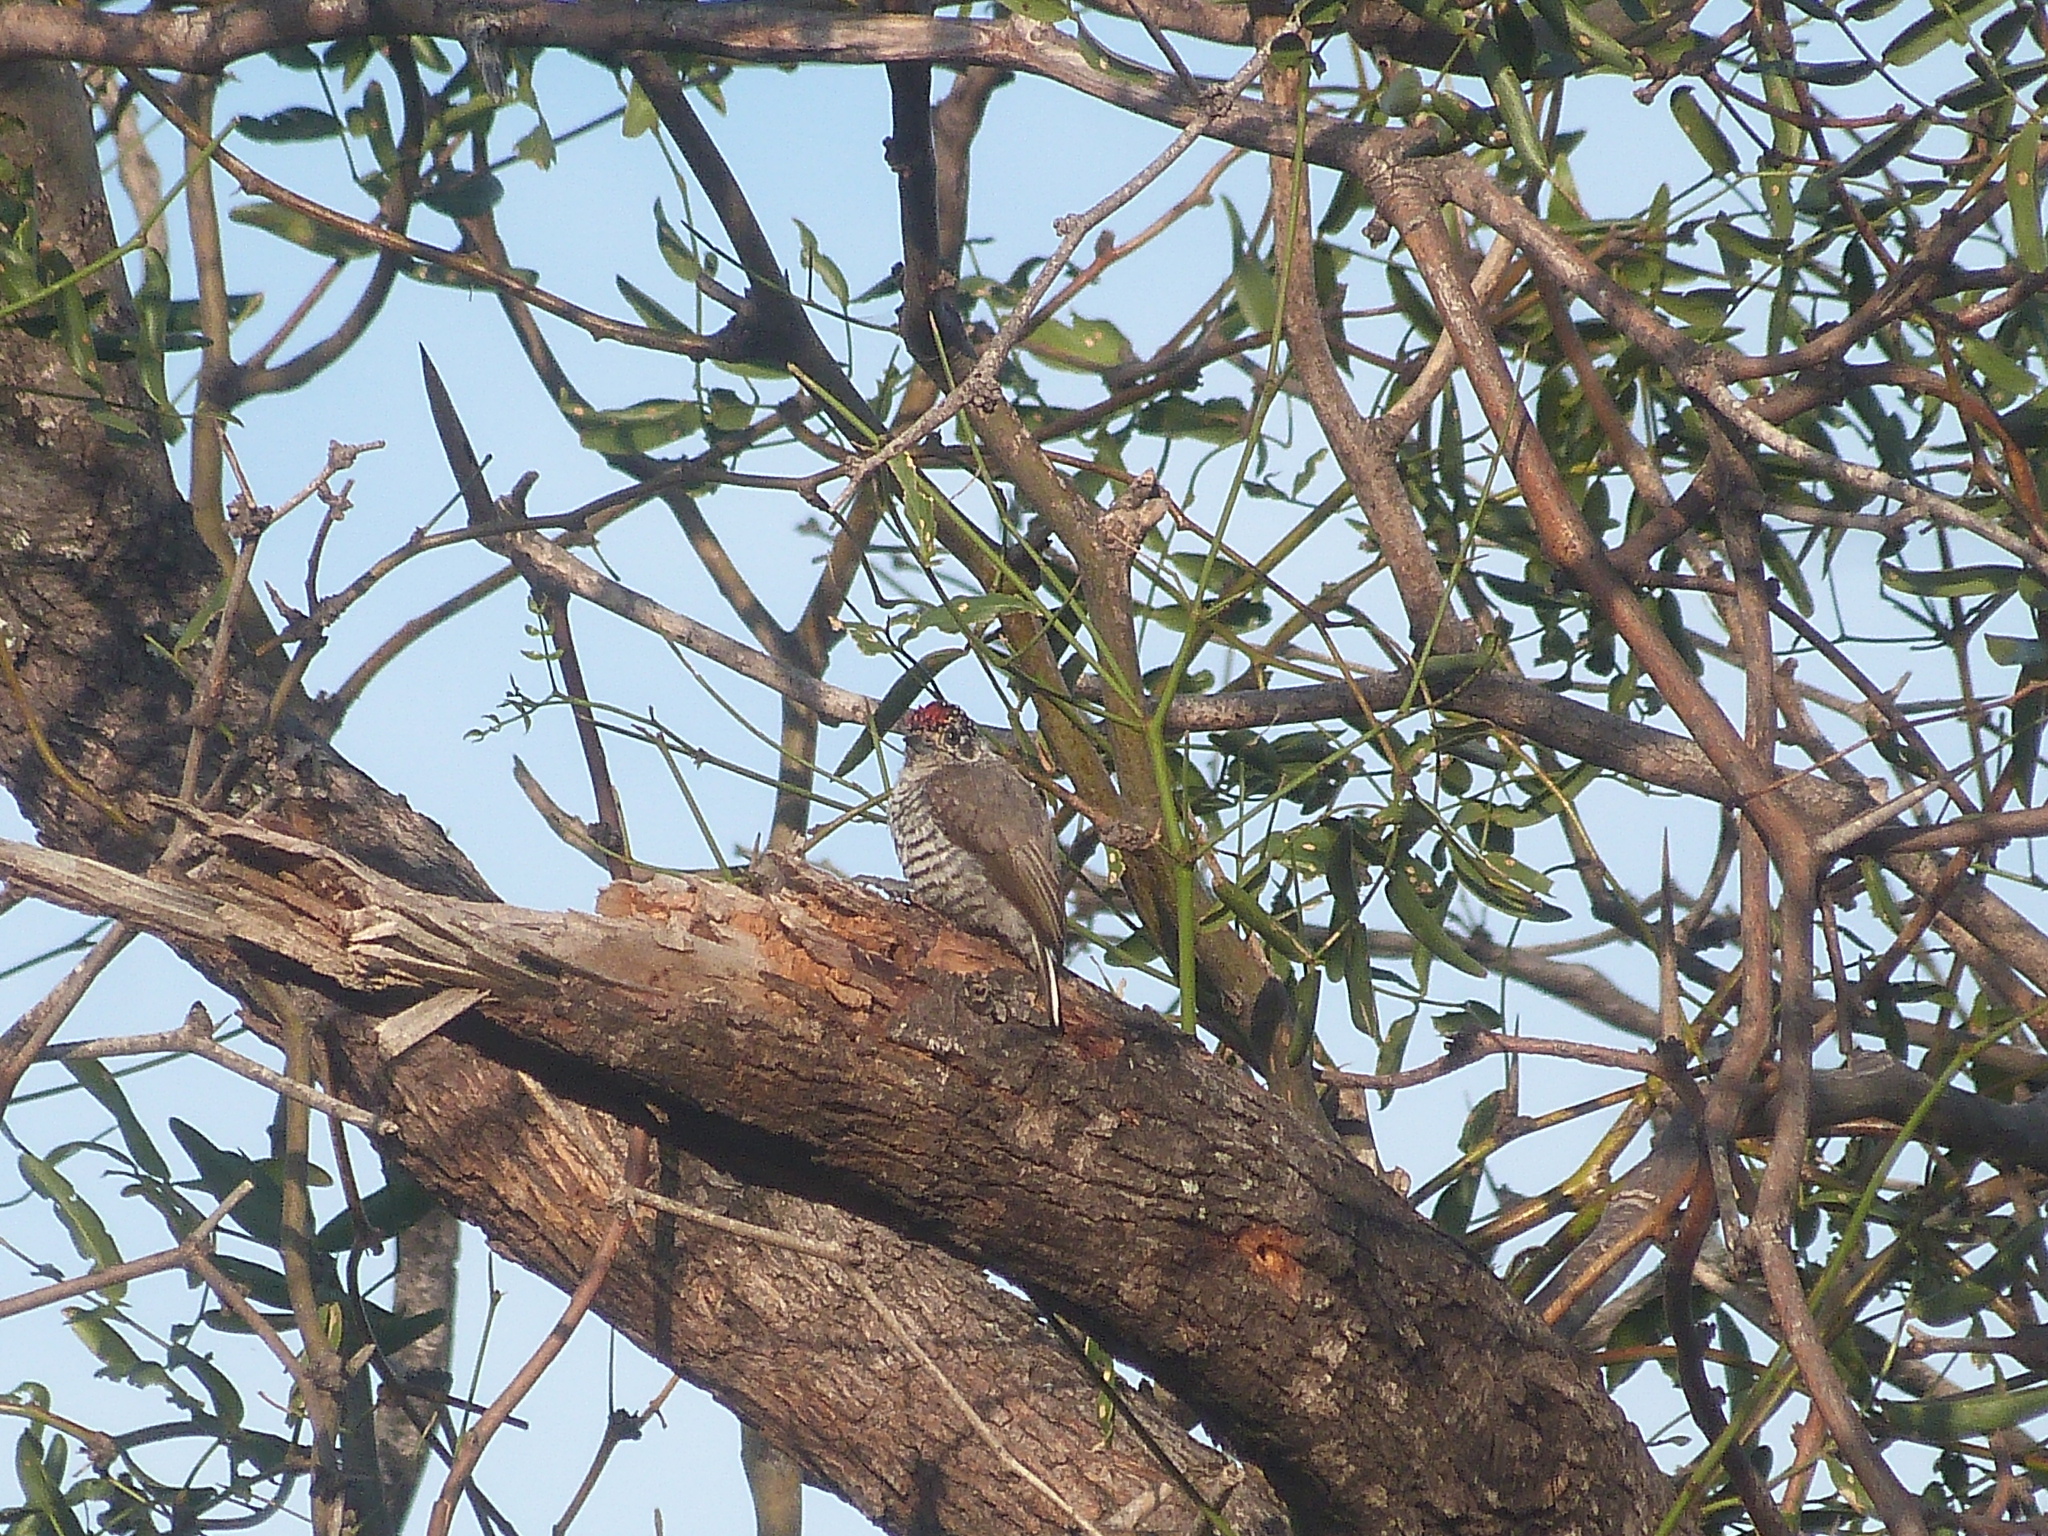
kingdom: Animalia
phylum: Chordata
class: Aves
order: Piciformes
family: Picidae
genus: Picumnus
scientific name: Picumnus cirratus
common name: White-barred piculet
